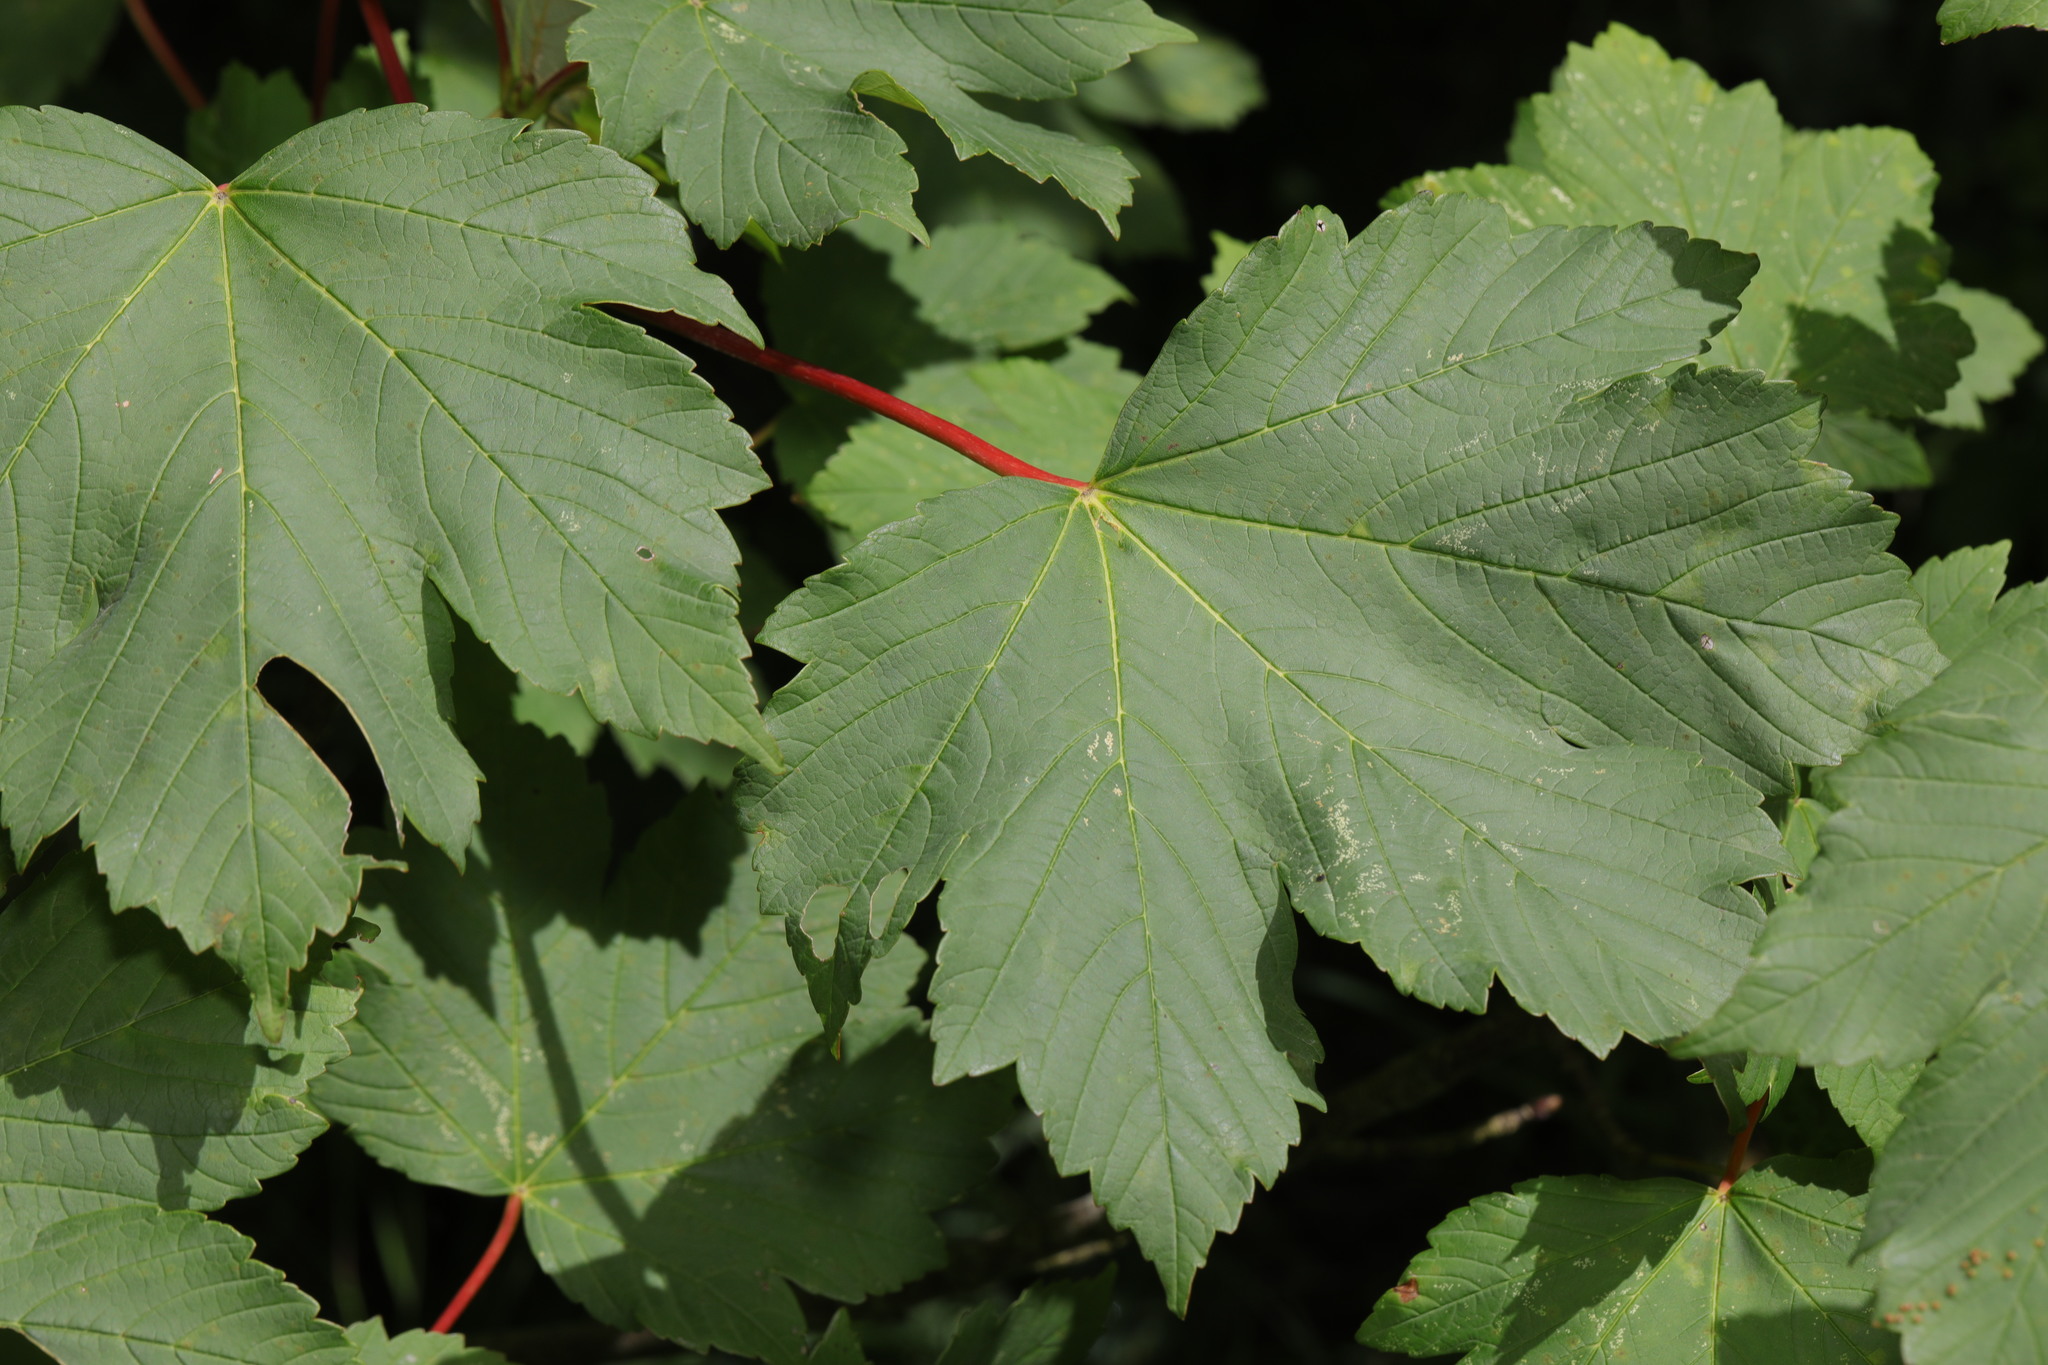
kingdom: Plantae
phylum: Tracheophyta
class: Magnoliopsida
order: Sapindales
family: Sapindaceae
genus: Acer
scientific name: Acer pseudoplatanus
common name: Sycamore
